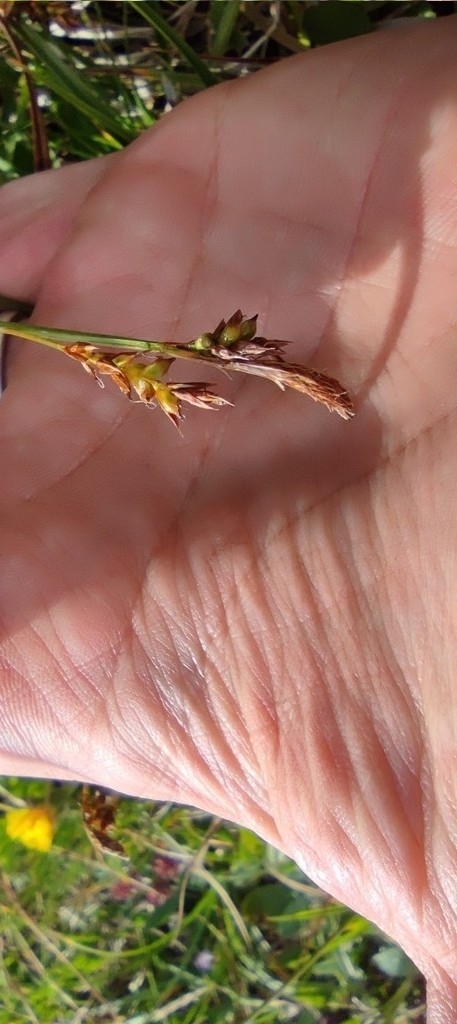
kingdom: Plantae
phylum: Tracheophyta
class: Liliopsida
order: Poales
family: Cyperaceae
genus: Carex
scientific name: Carex depressa
